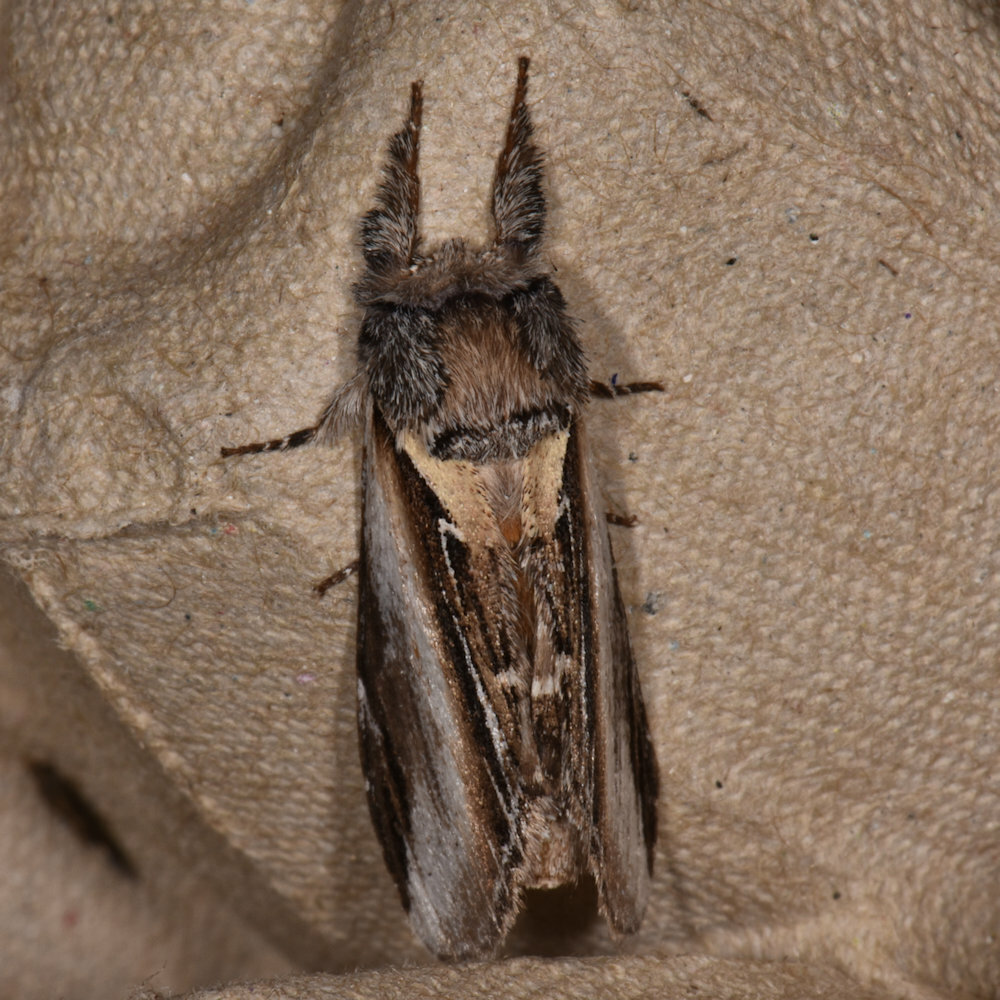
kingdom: Animalia
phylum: Arthropoda
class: Insecta
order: Lepidoptera
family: Notodontidae
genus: Pheosia
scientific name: Pheosia rimosa
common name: Black-rimmed prominent
